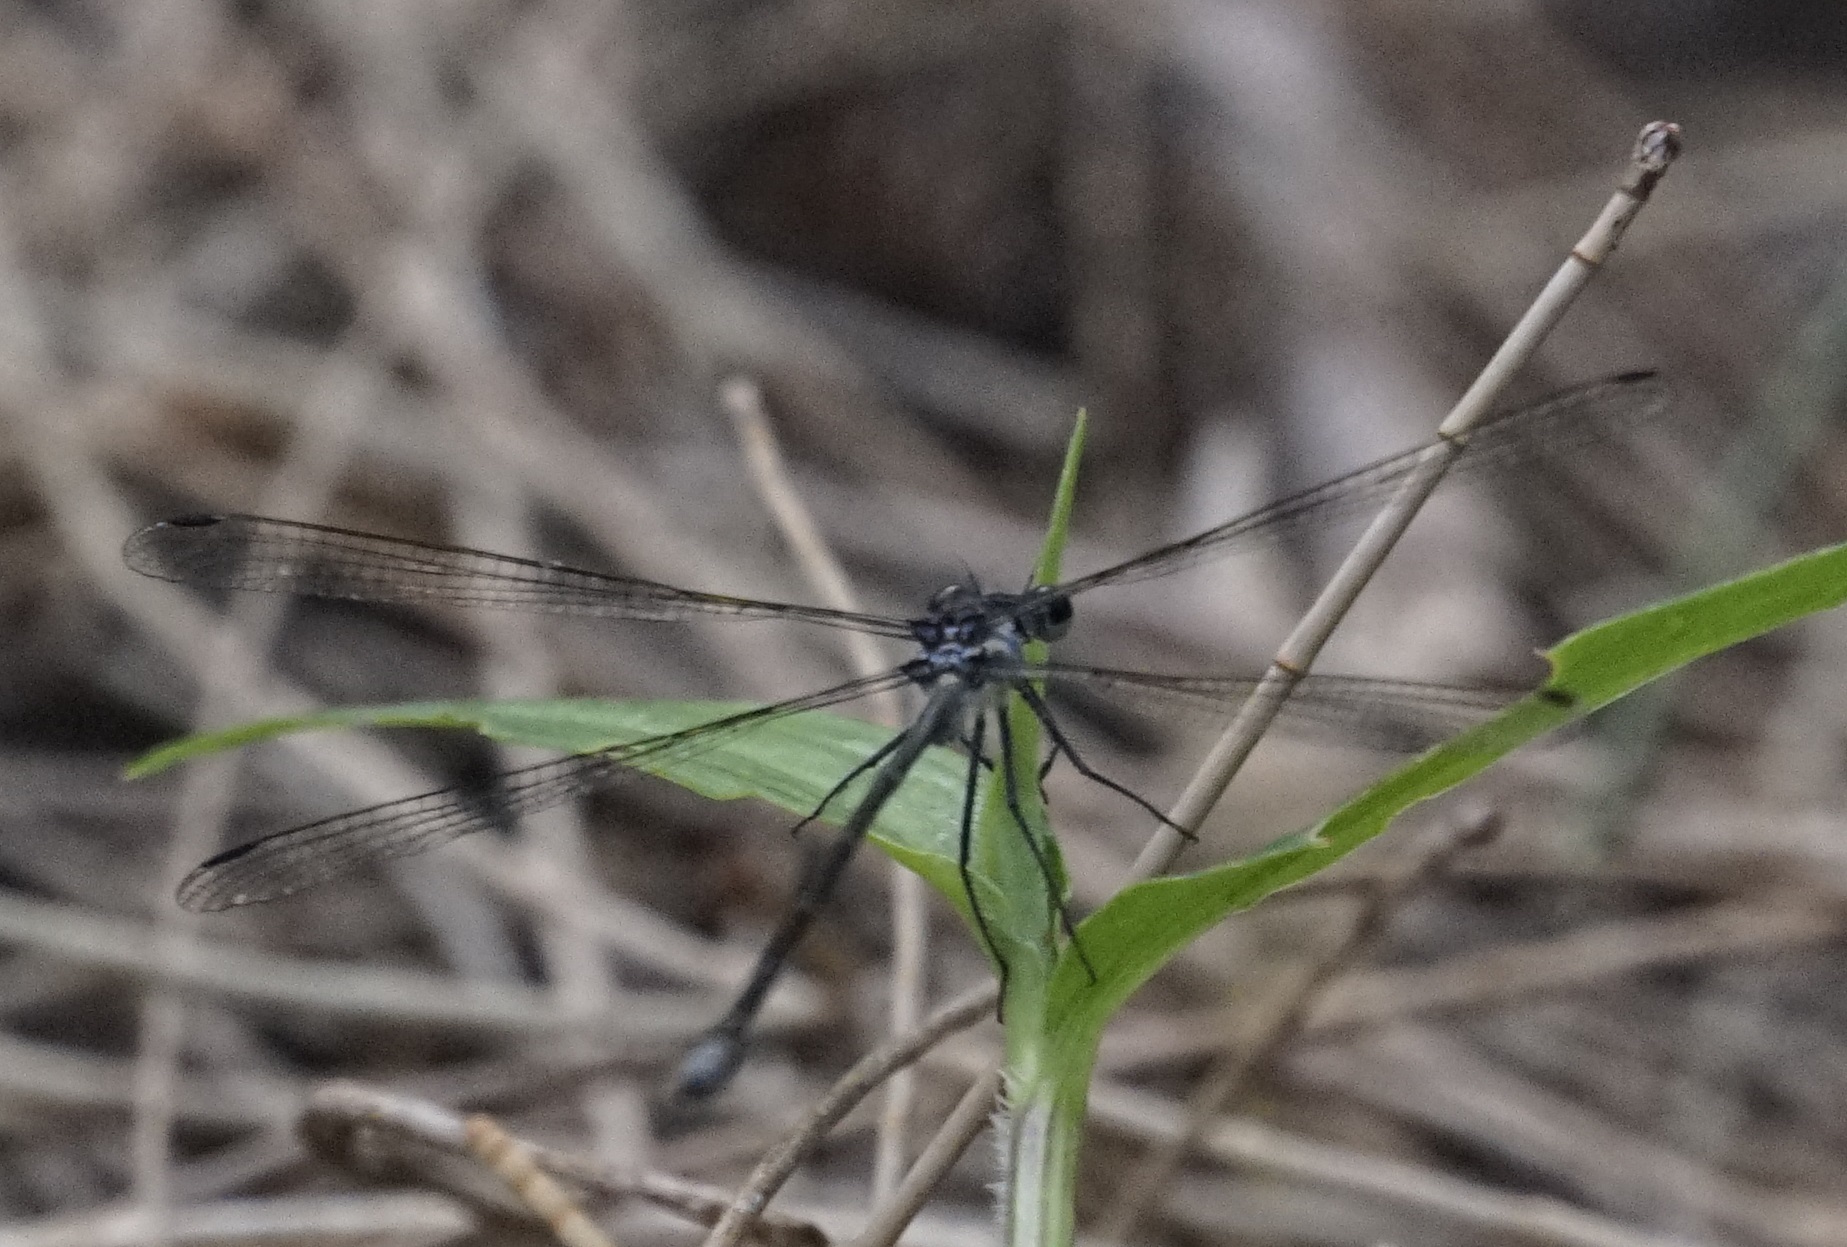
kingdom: Animalia
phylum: Arthropoda
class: Insecta
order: Odonata
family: Argiolestidae
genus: Austroargiolestes
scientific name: Austroargiolestes icteromelas
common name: Common flatwing
